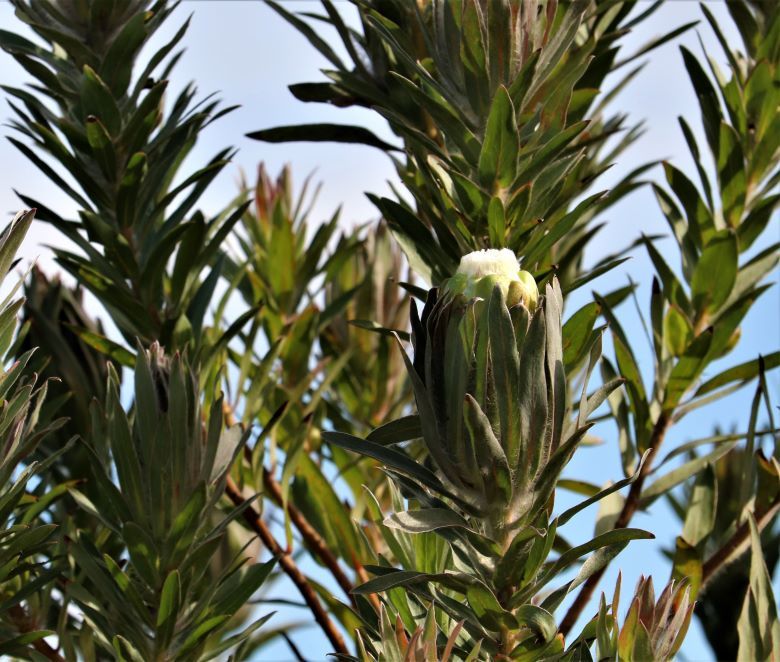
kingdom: Plantae
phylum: Tracheophyta
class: Magnoliopsida
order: Proteales
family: Proteaceae
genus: Protea
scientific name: Protea coronata
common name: Green sugarbush
